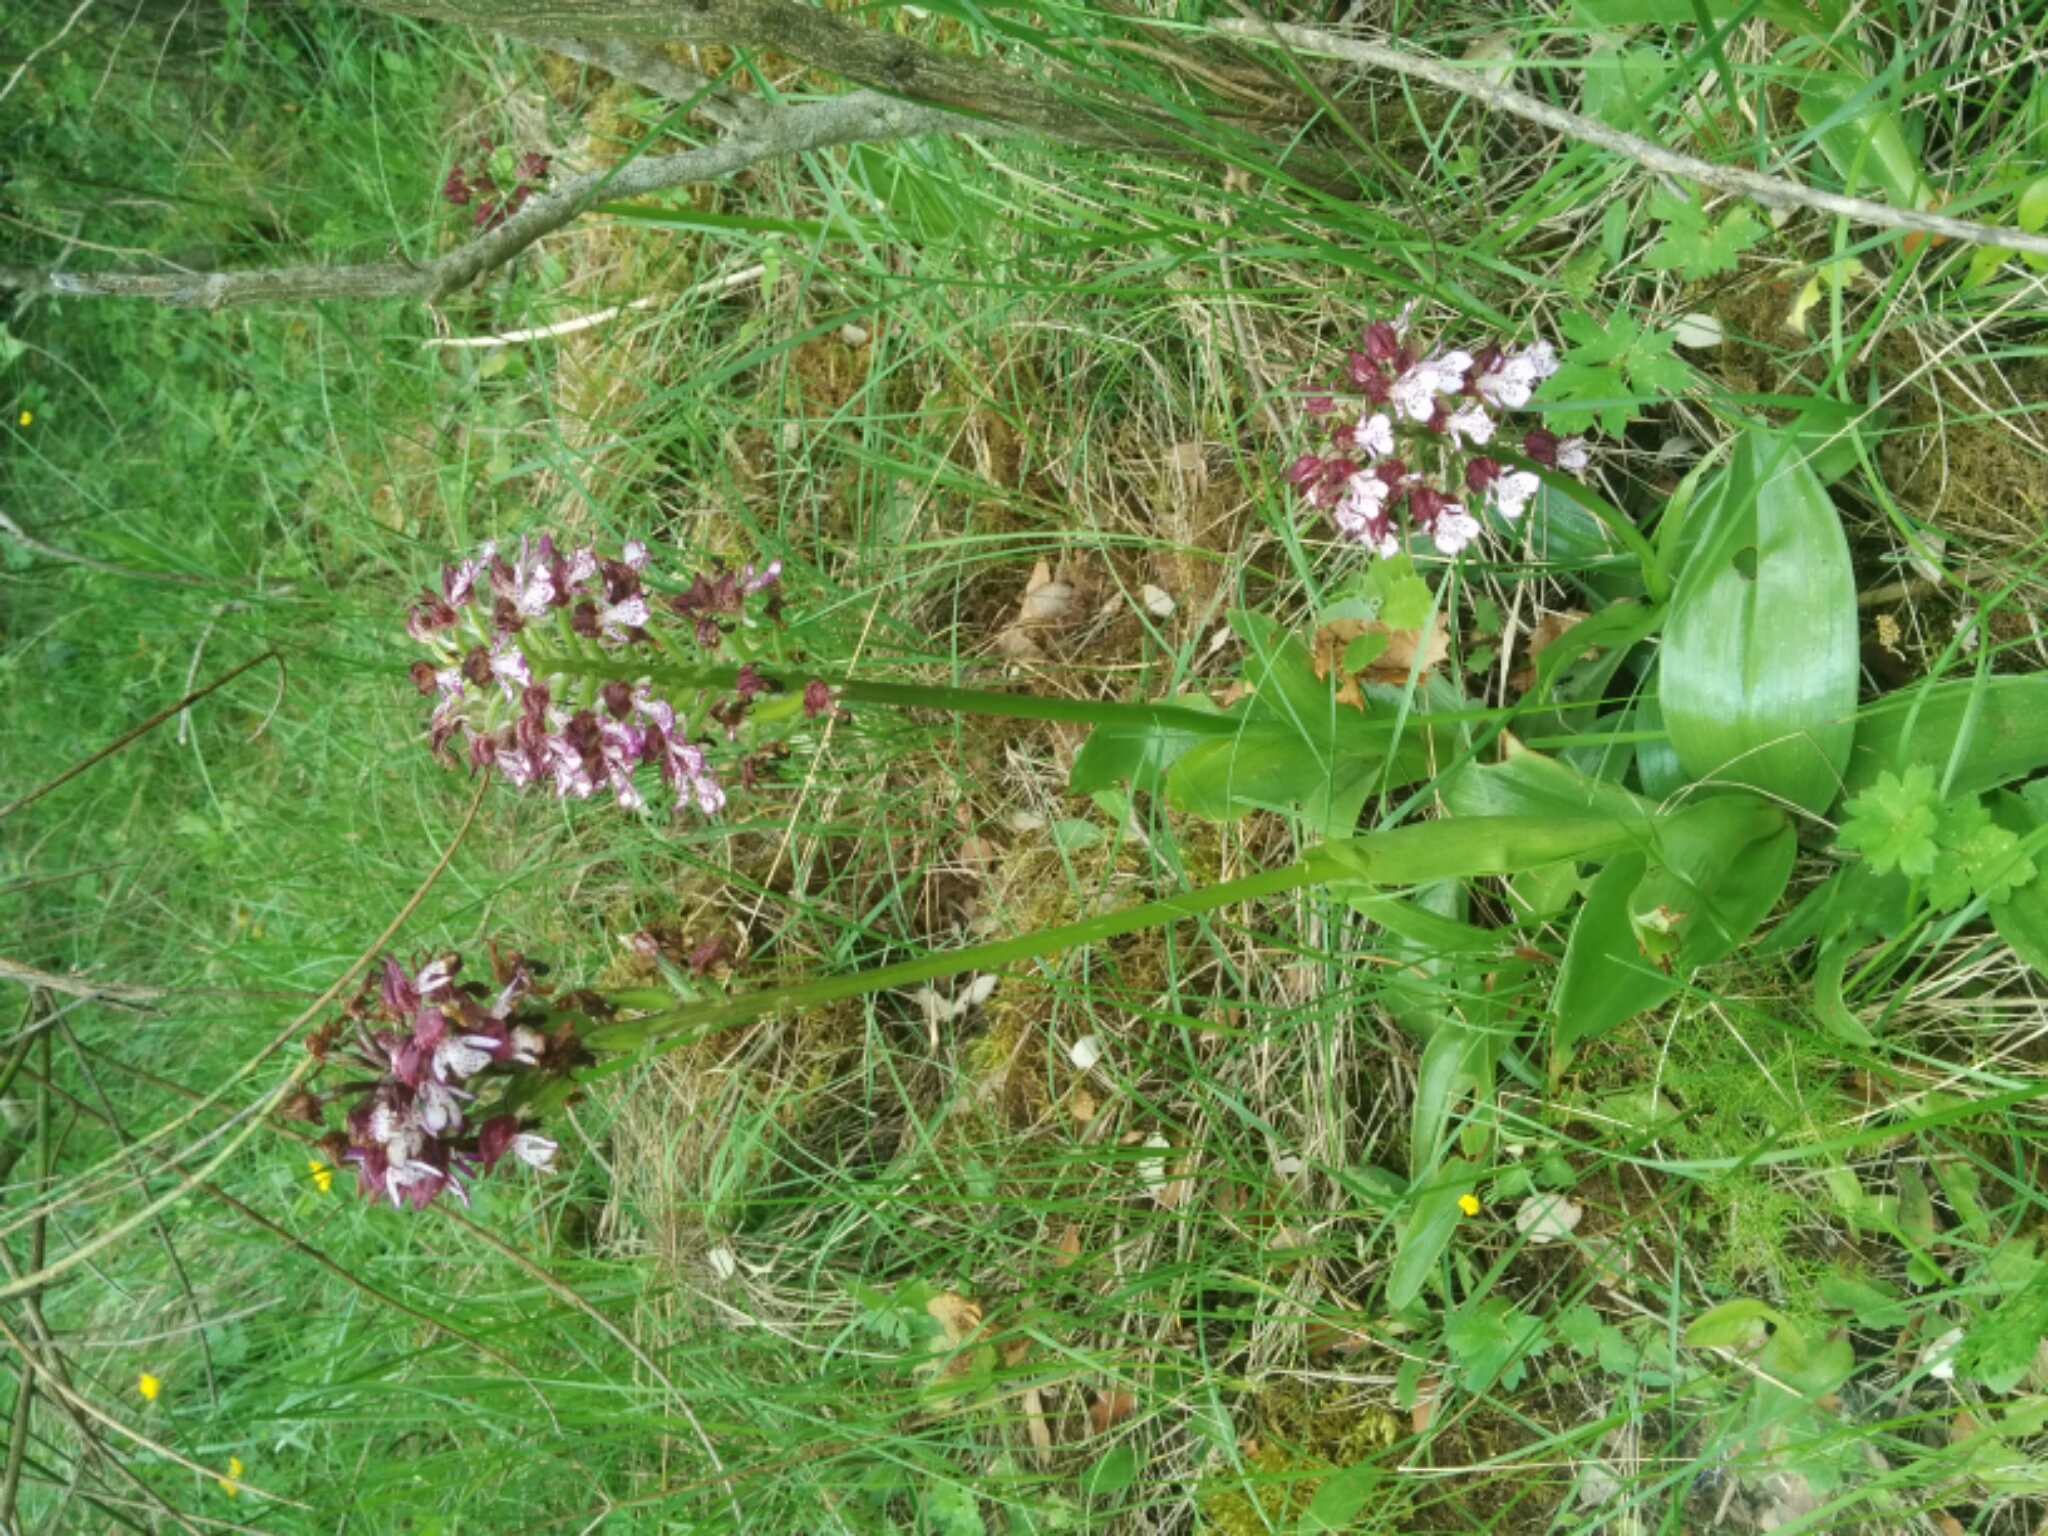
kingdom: Plantae
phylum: Tracheophyta
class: Liliopsida
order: Asparagales
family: Orchidaceae
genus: Orchis
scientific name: Orchis purpurea
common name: Lady orchid
